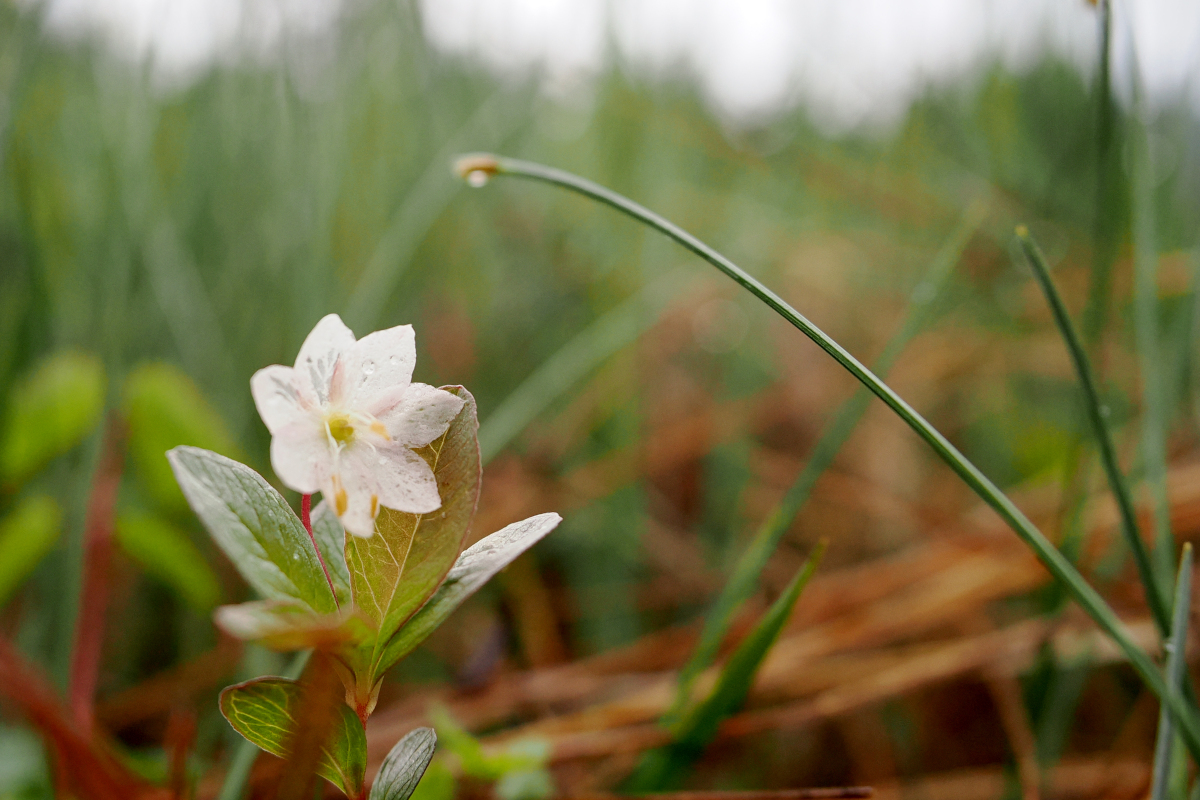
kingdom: Plantae
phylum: Tracheophyta
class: Magnoliopsida
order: Ericales
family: Primulaceae
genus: Lysimachia
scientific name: Lysimachia europaea
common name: Arctic starflower
